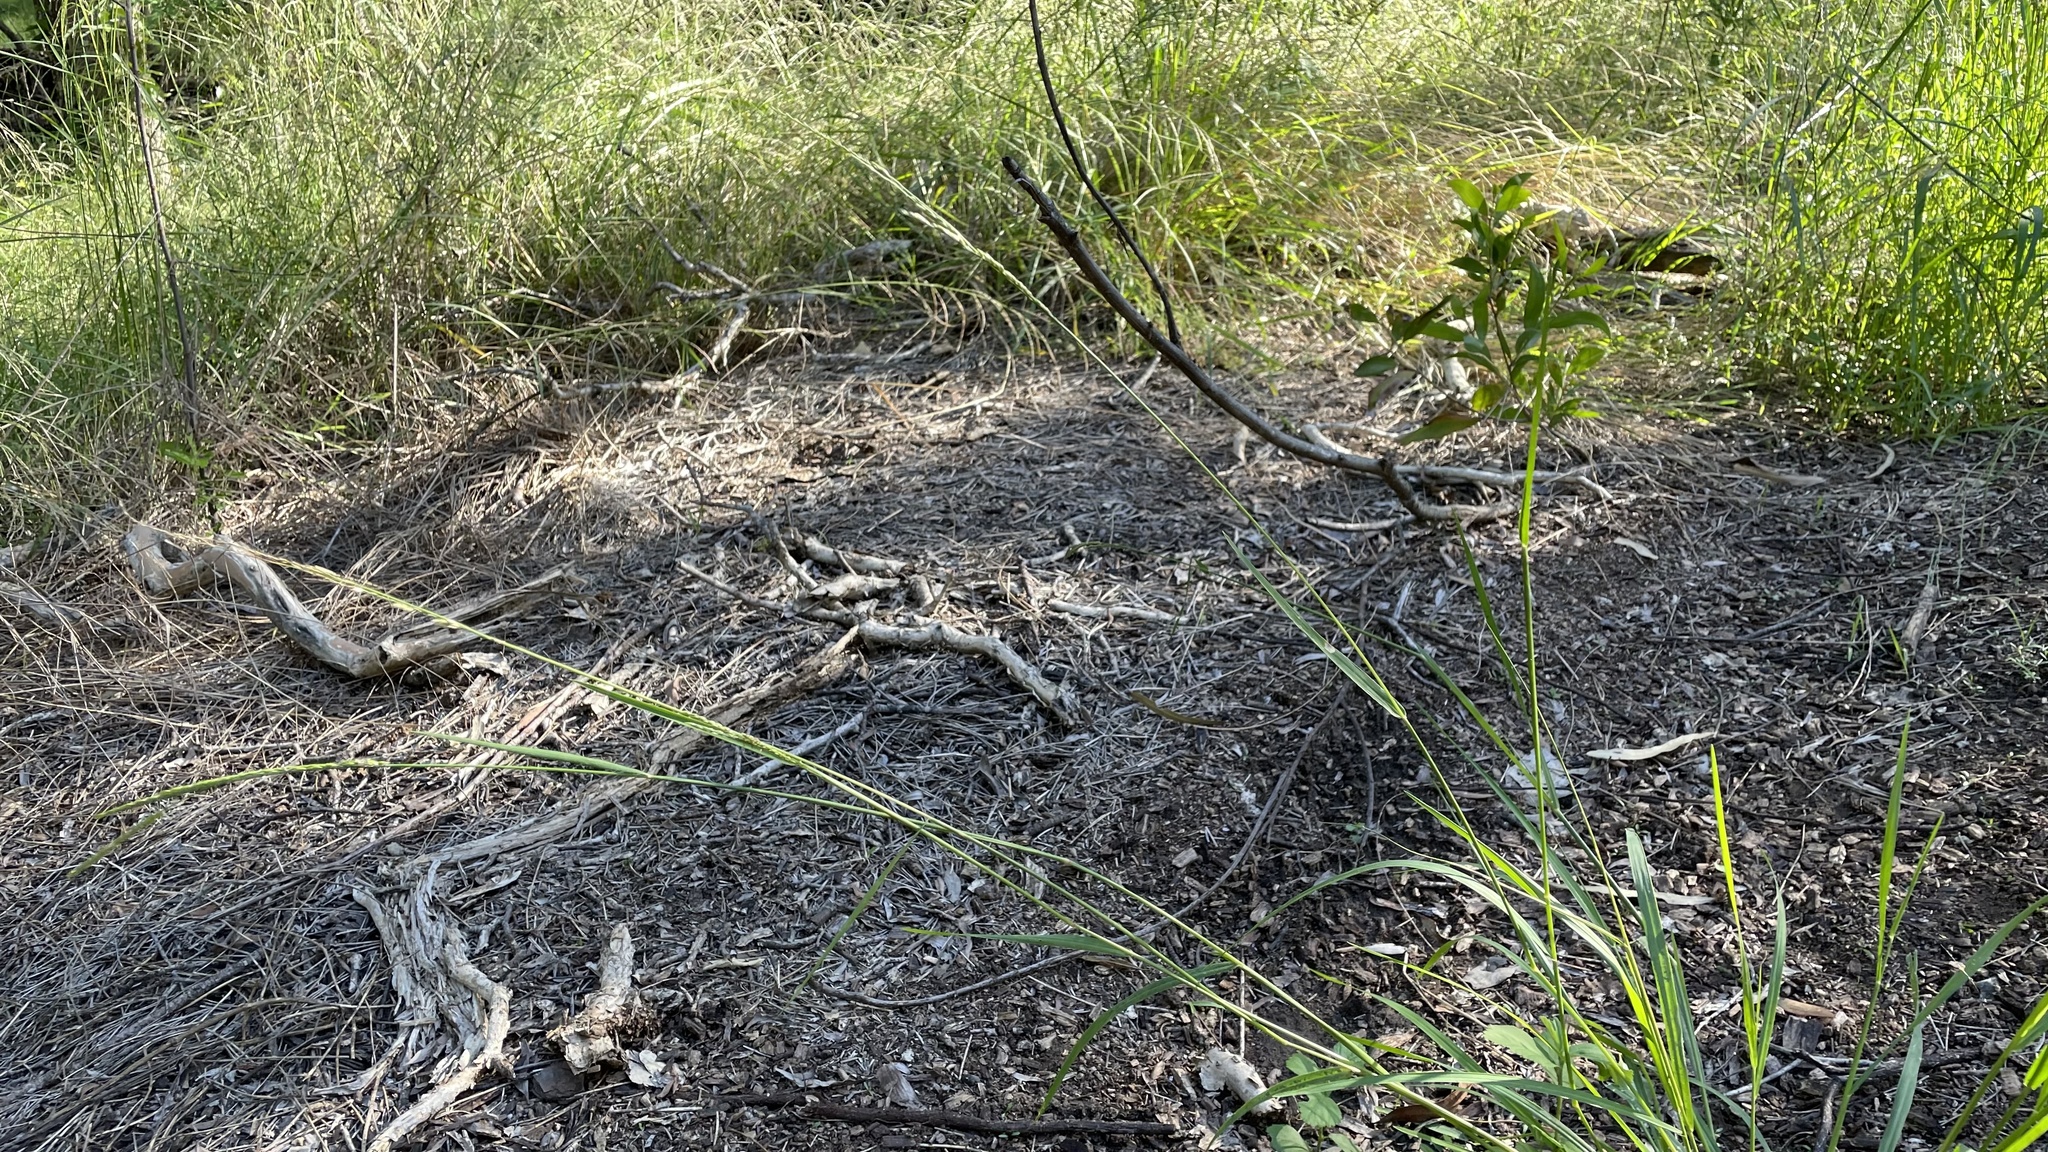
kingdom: Plantae
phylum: Tracheophyta
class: Liliopsida
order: Poales
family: Poaceae
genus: Eriochloa
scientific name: Eriochloa procera
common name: Spring grass
